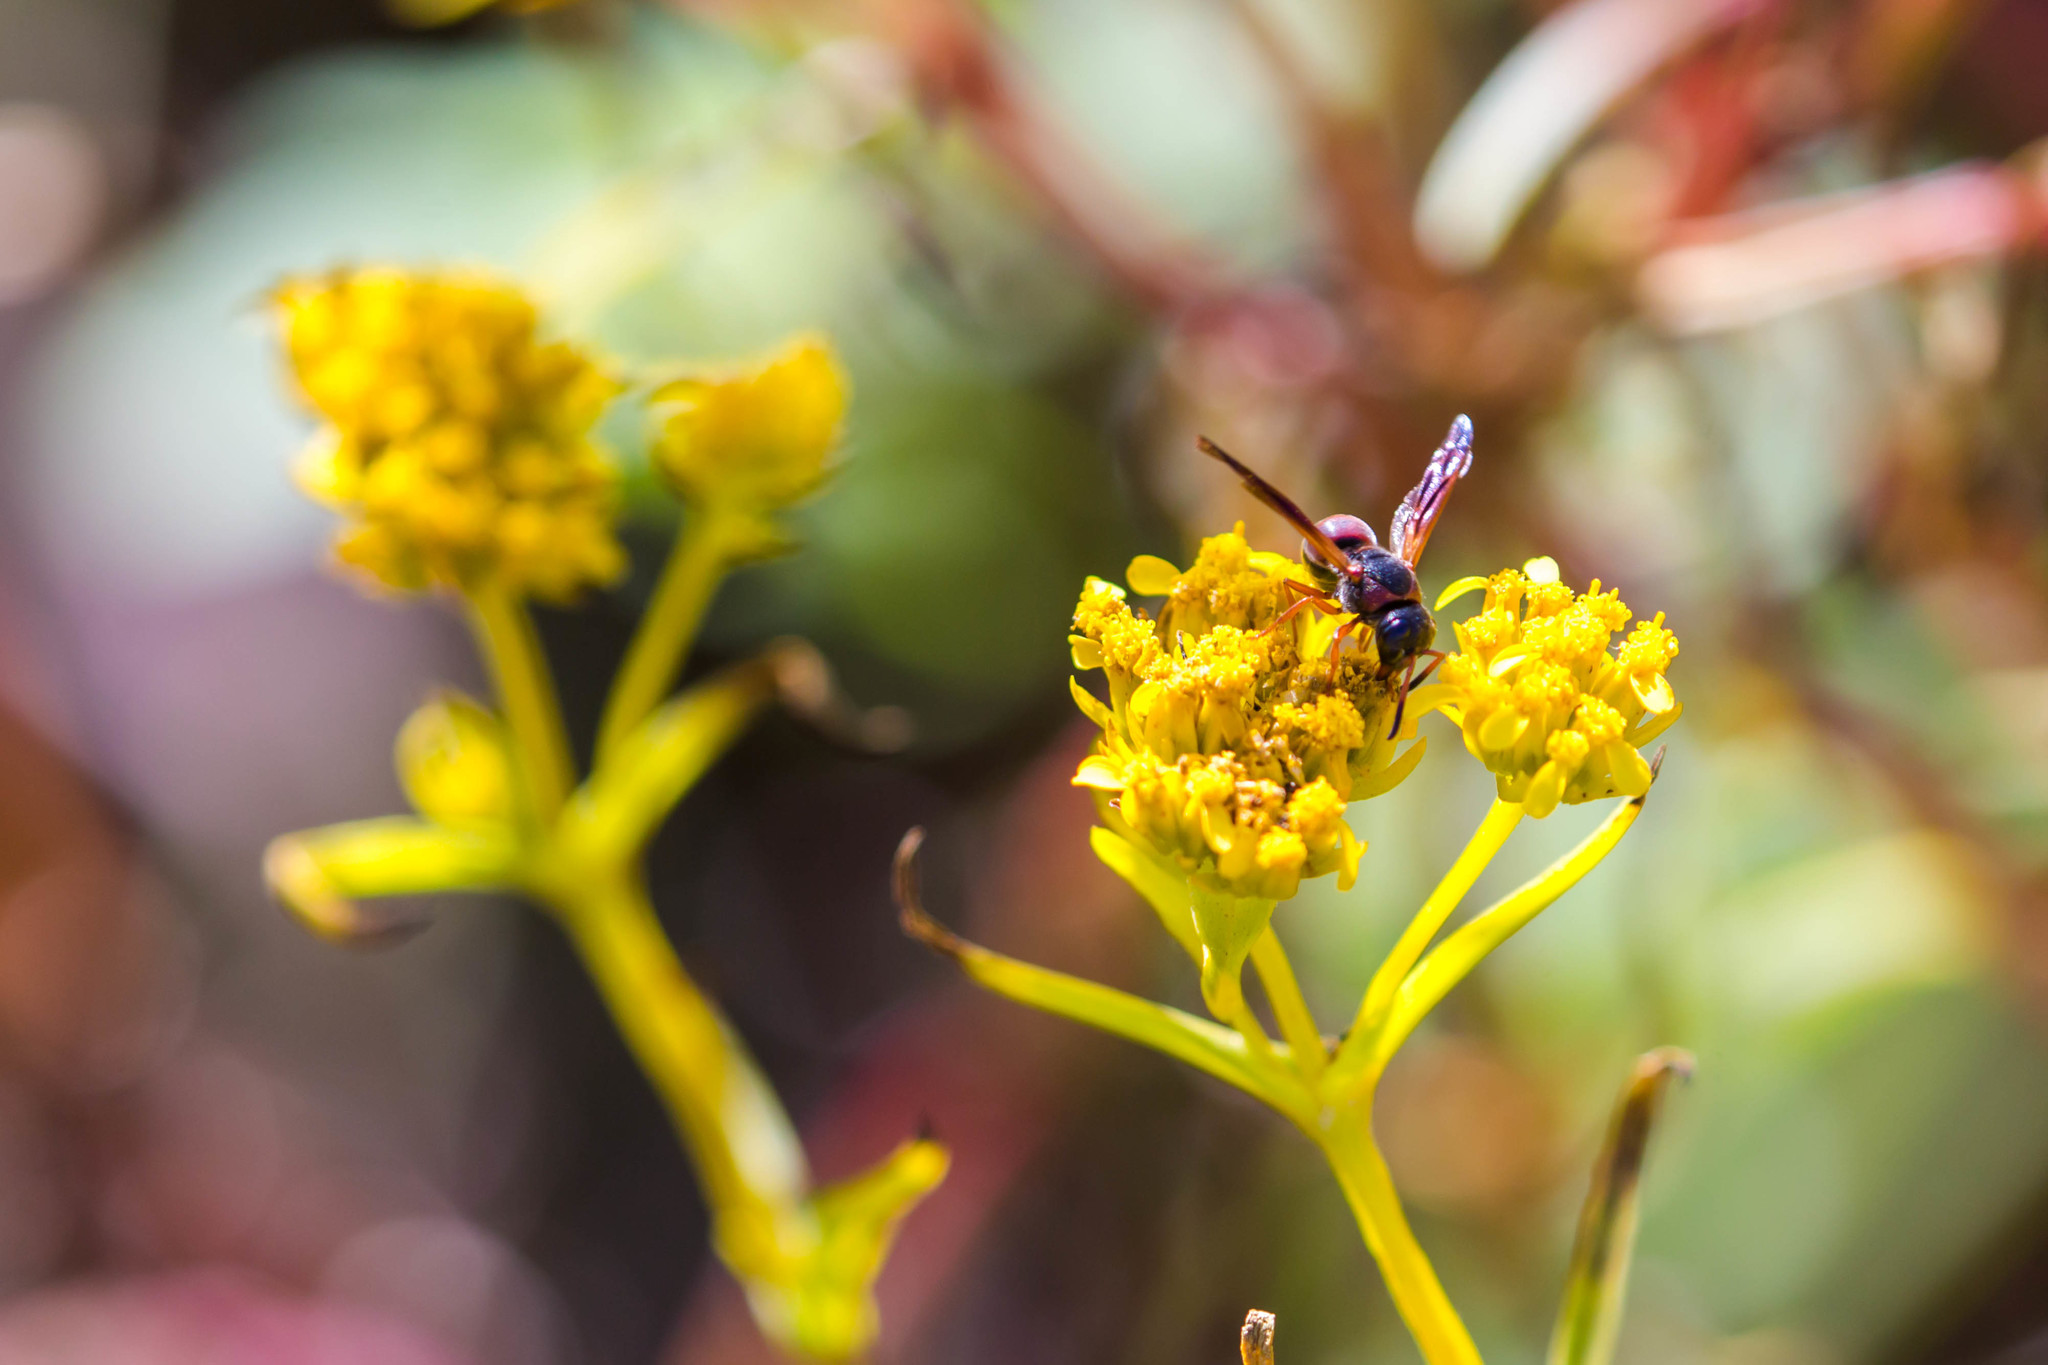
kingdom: Animalia
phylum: Arthropoda
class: Insecta
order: Hymenoptera
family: Eumenidae
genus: Pachodynerus
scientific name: Pachodynerus erynnis
